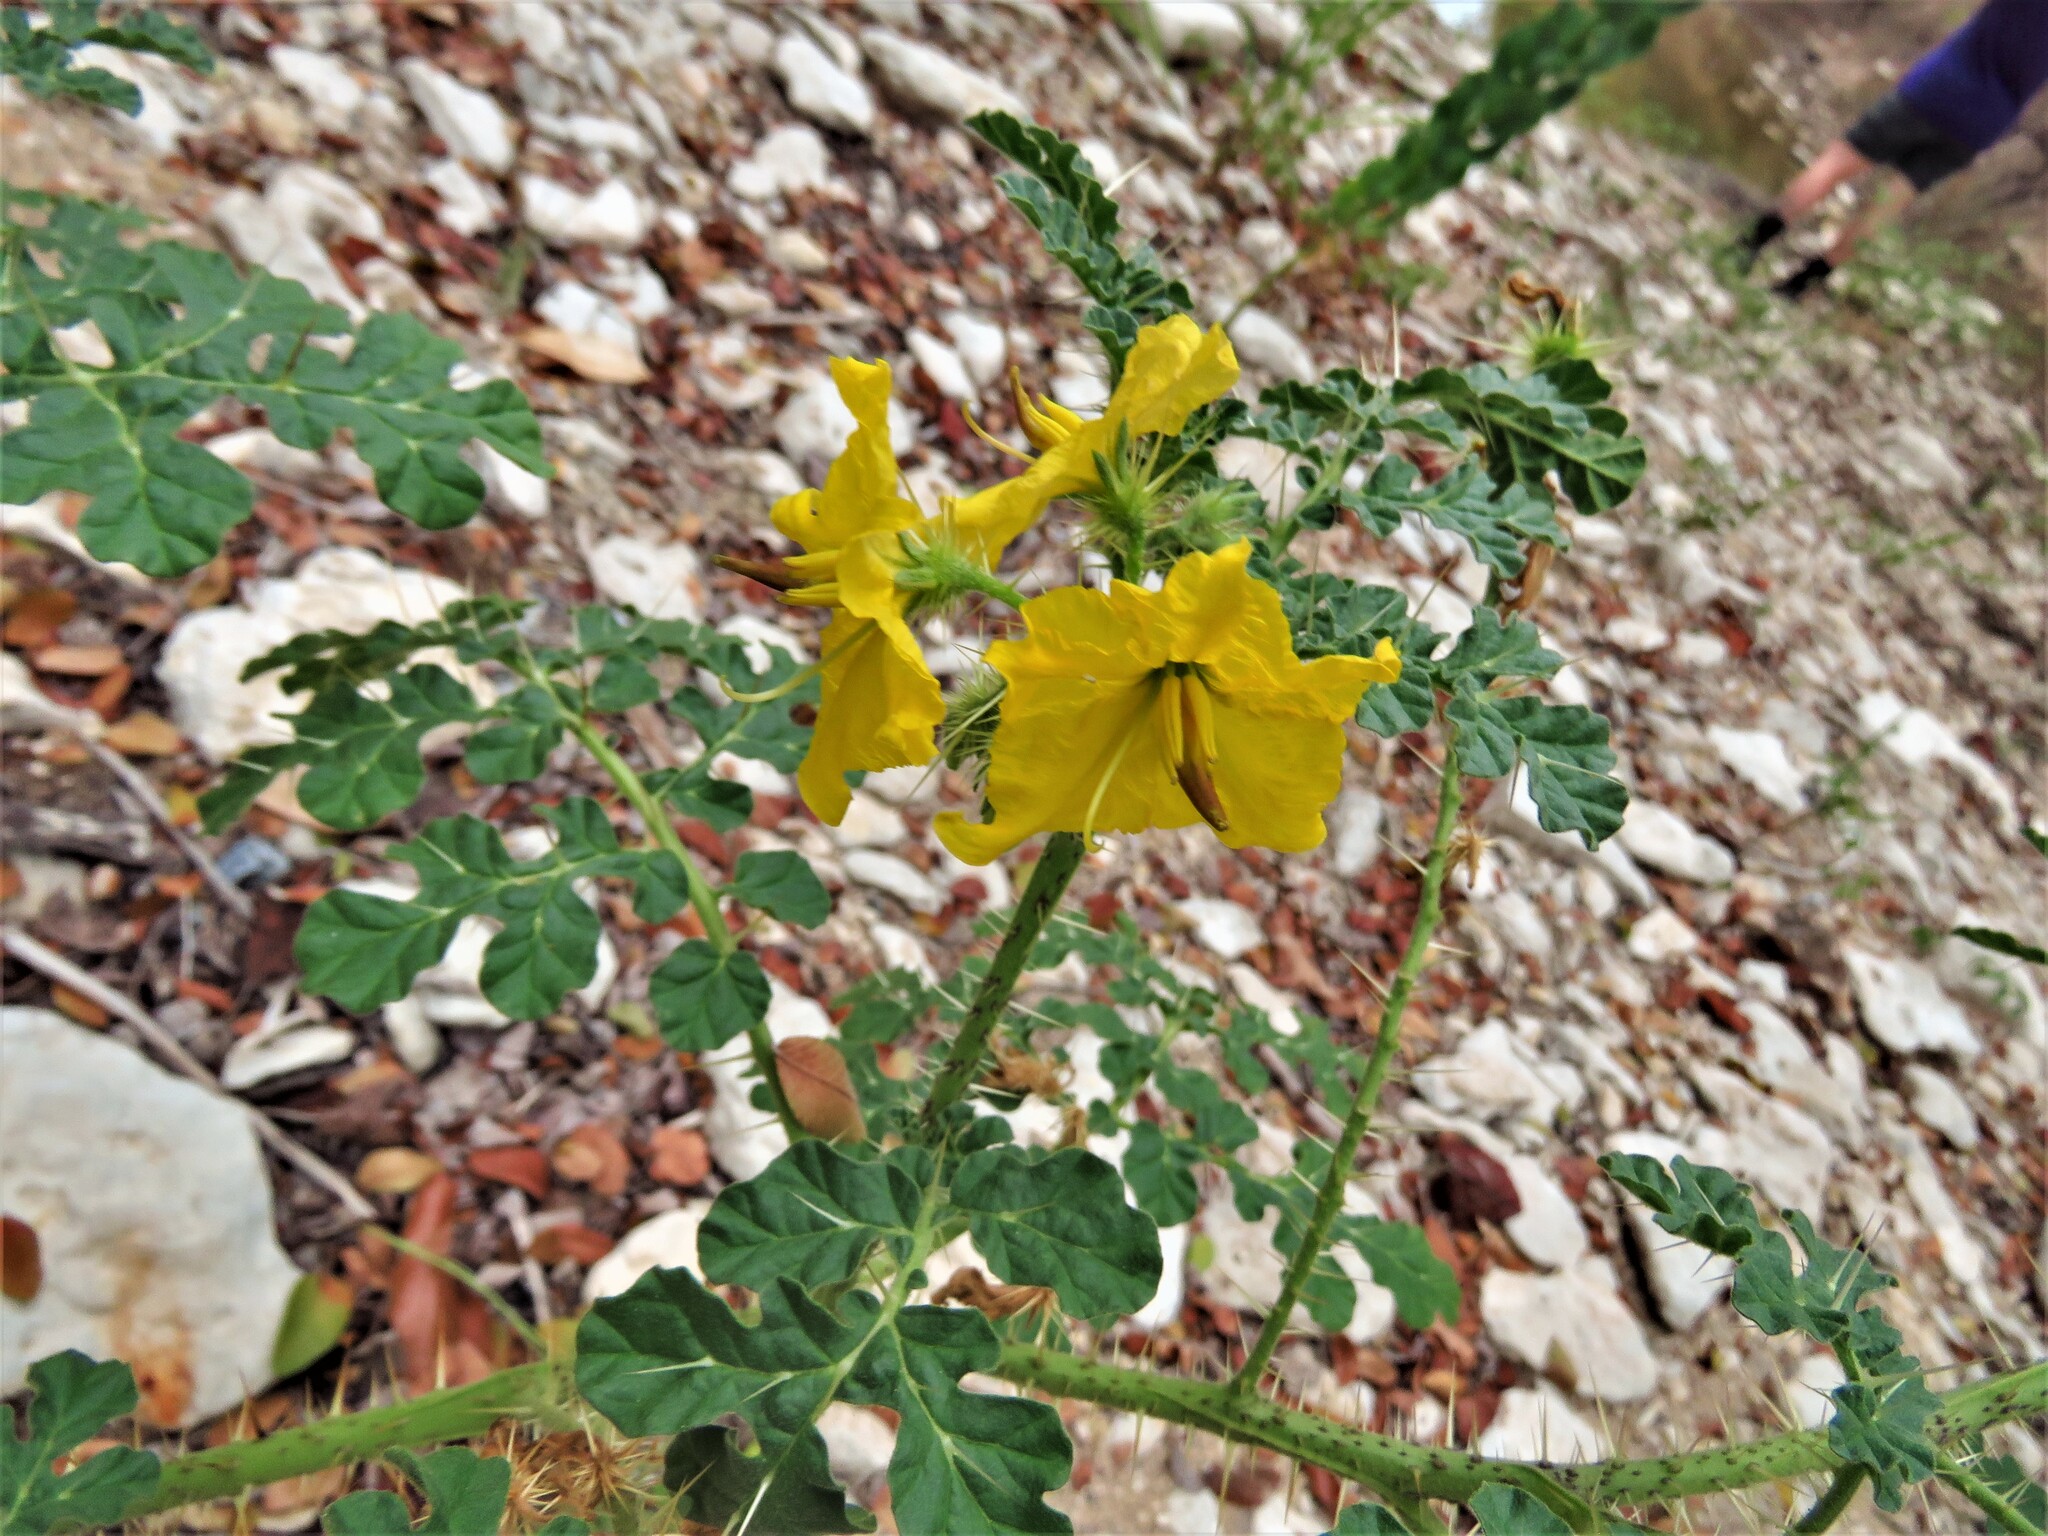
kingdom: Plantae
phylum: Tracheophyta
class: Magnoliopsida
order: Solanales
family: Solanaceae
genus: Solanum
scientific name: Solanum angustifolium
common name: Buffalobur nightshade
